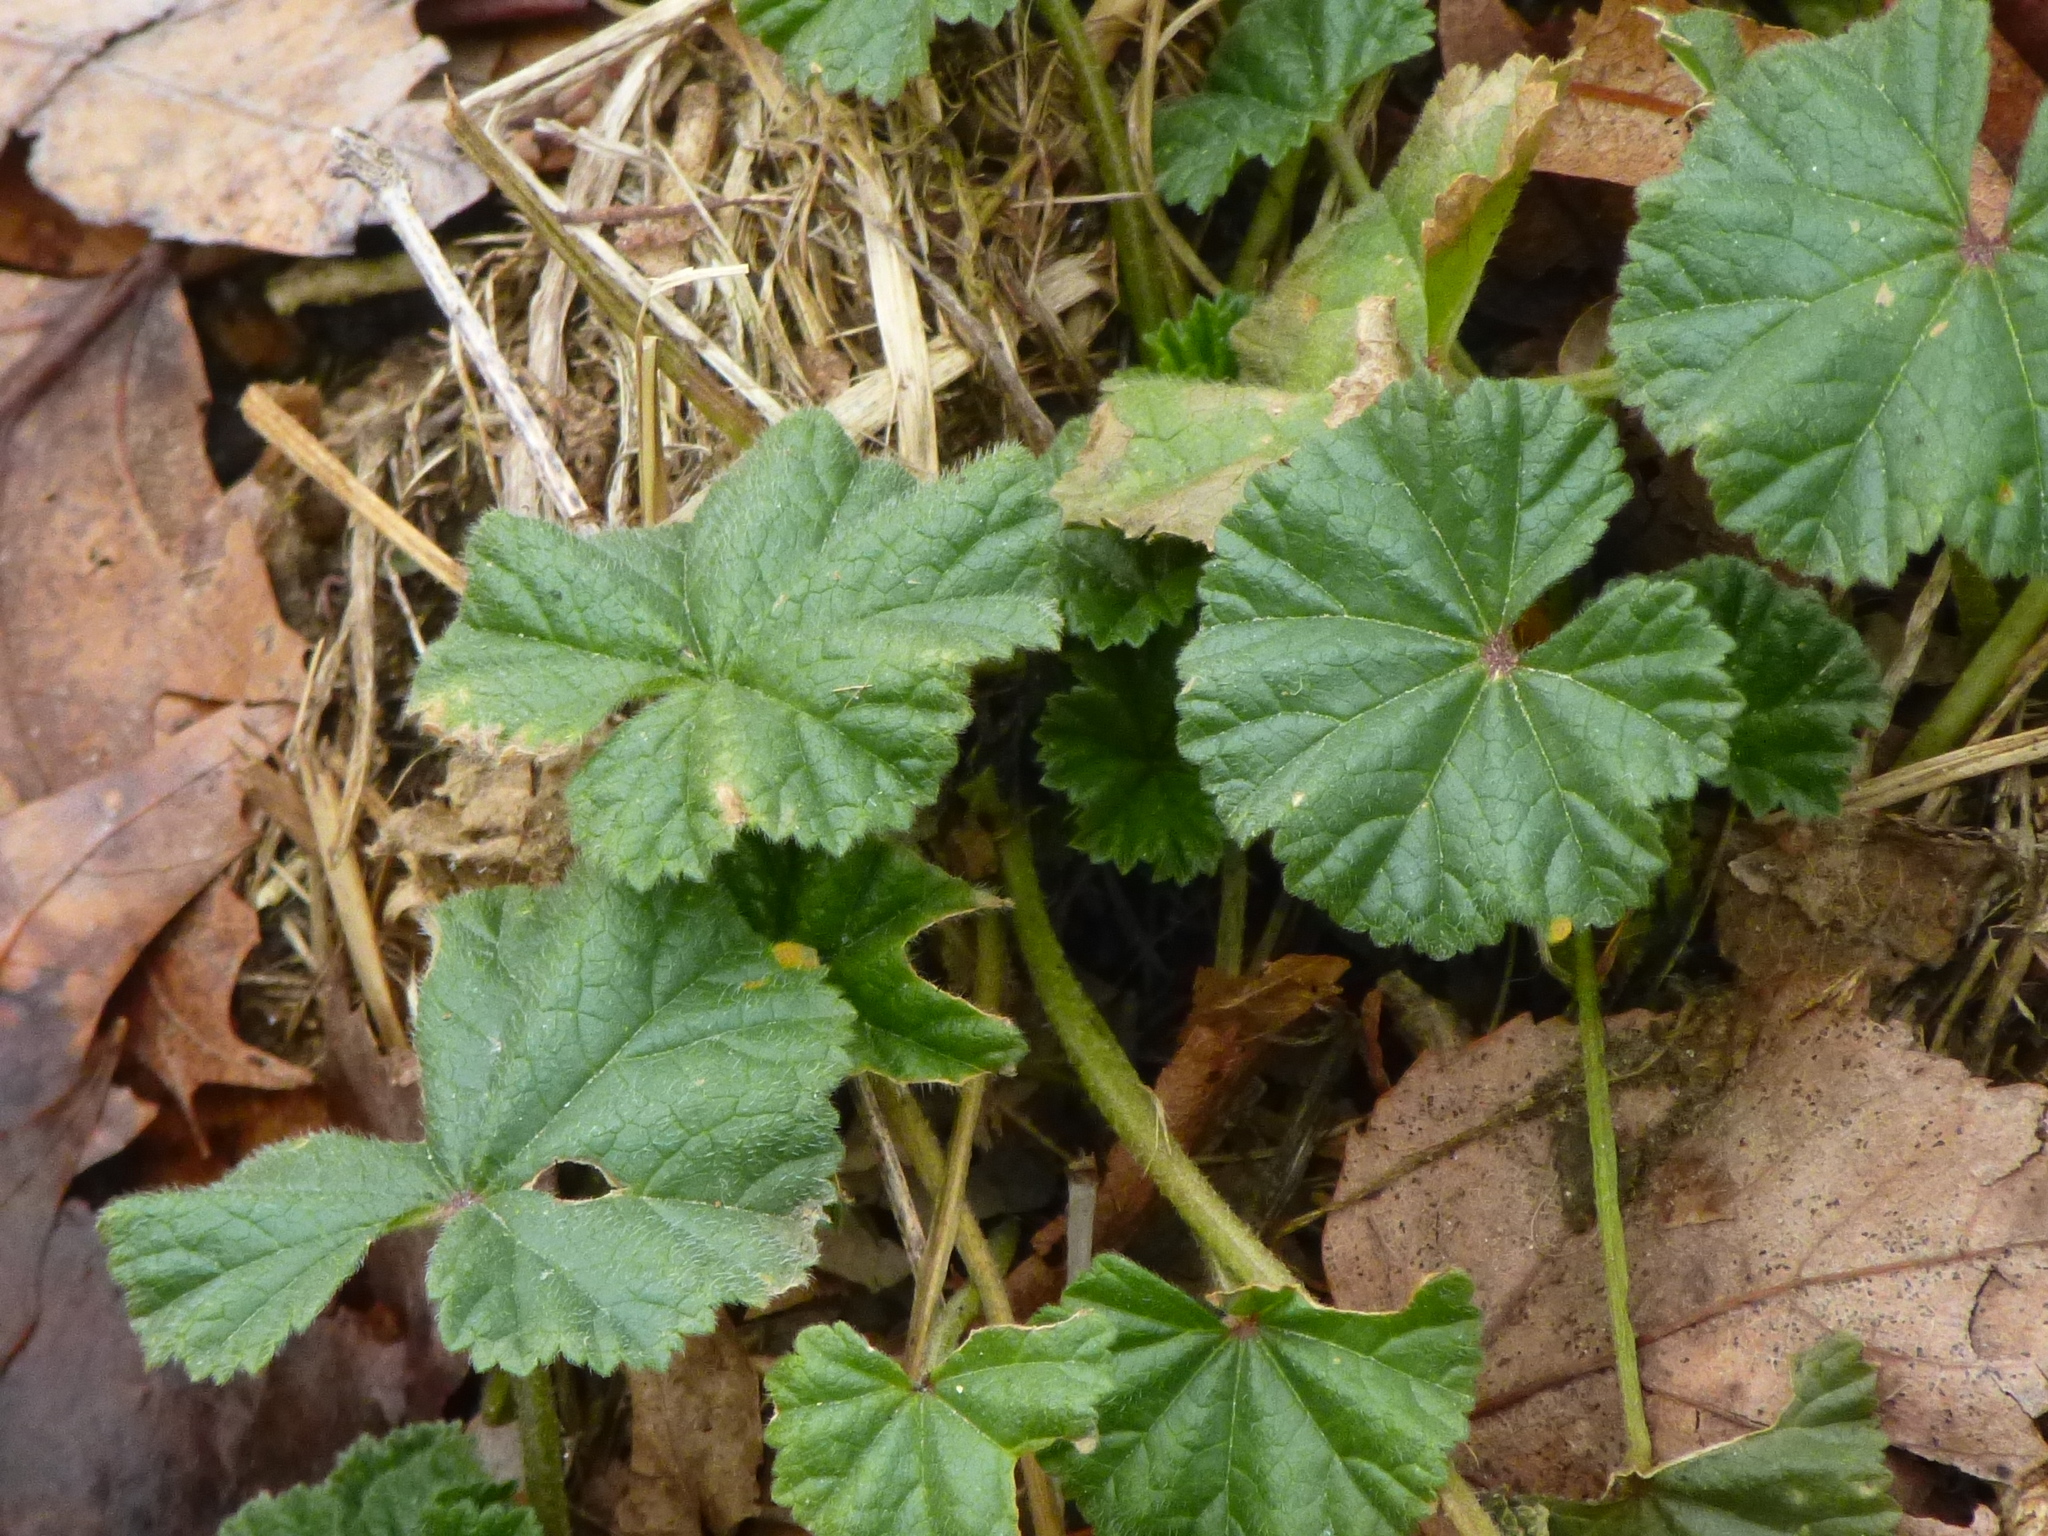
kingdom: Plantae
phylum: Tracheophyta
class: Magnoliopsida
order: Malvales
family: Malvaceae
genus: Malva
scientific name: Malva neglecta
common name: Common mallow
